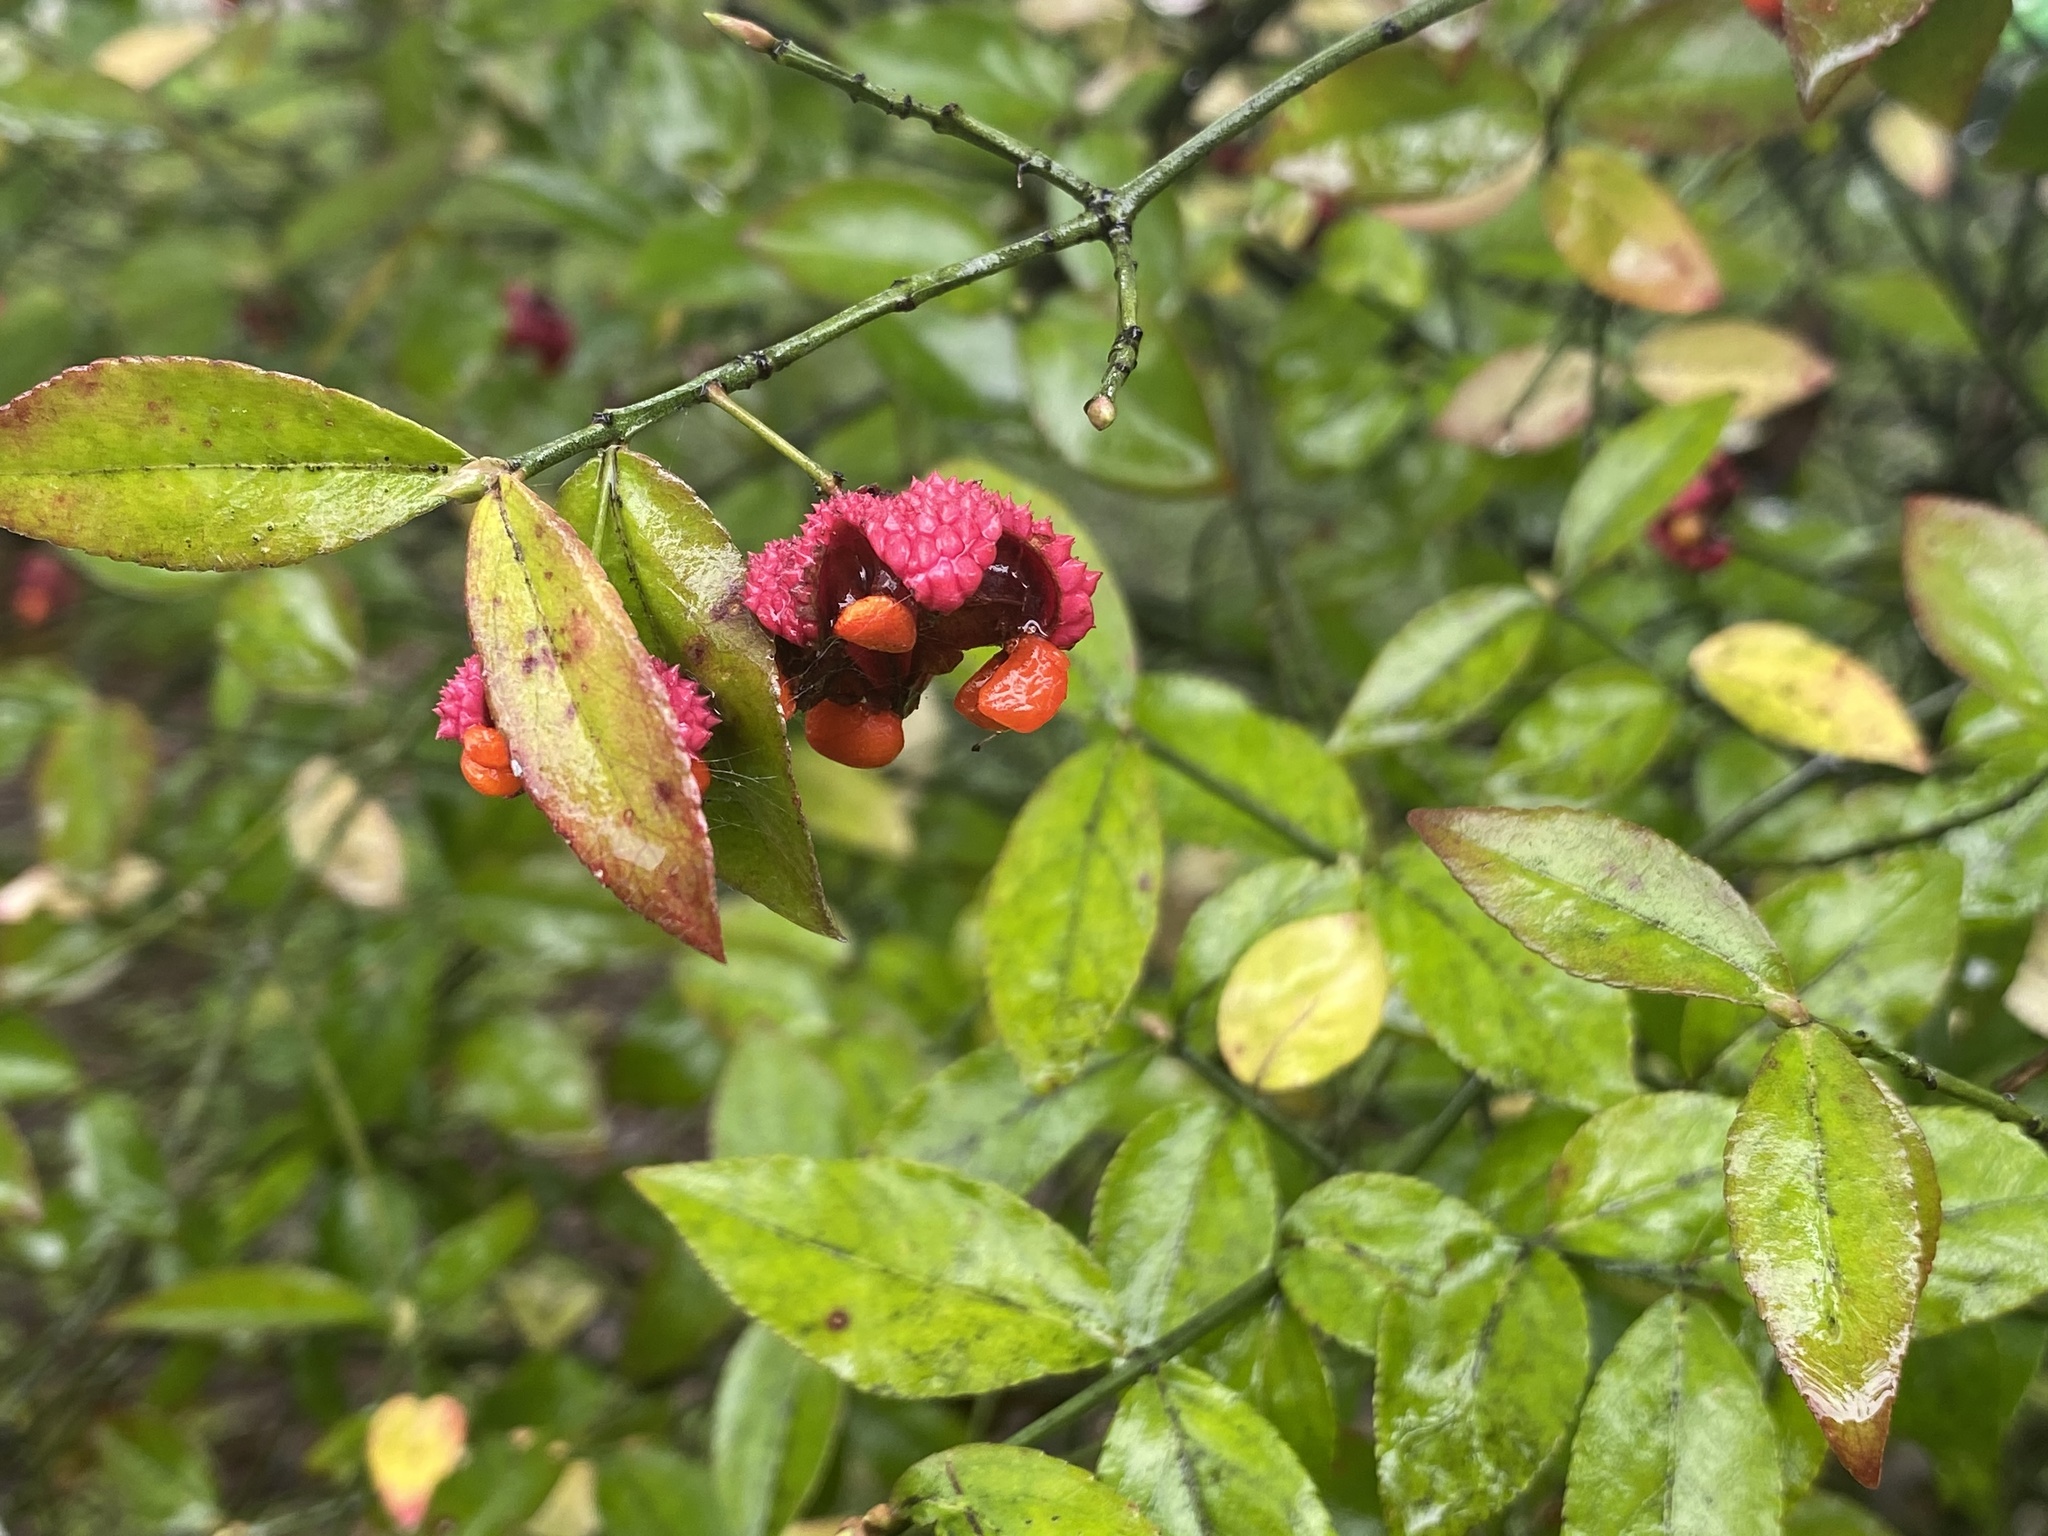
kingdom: Plantae
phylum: Tracheophyta
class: Magnoliopsida
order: Celastrales
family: Celastraceae
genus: Euonymus
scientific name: Euonymus americanus
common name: Bursting-heart
